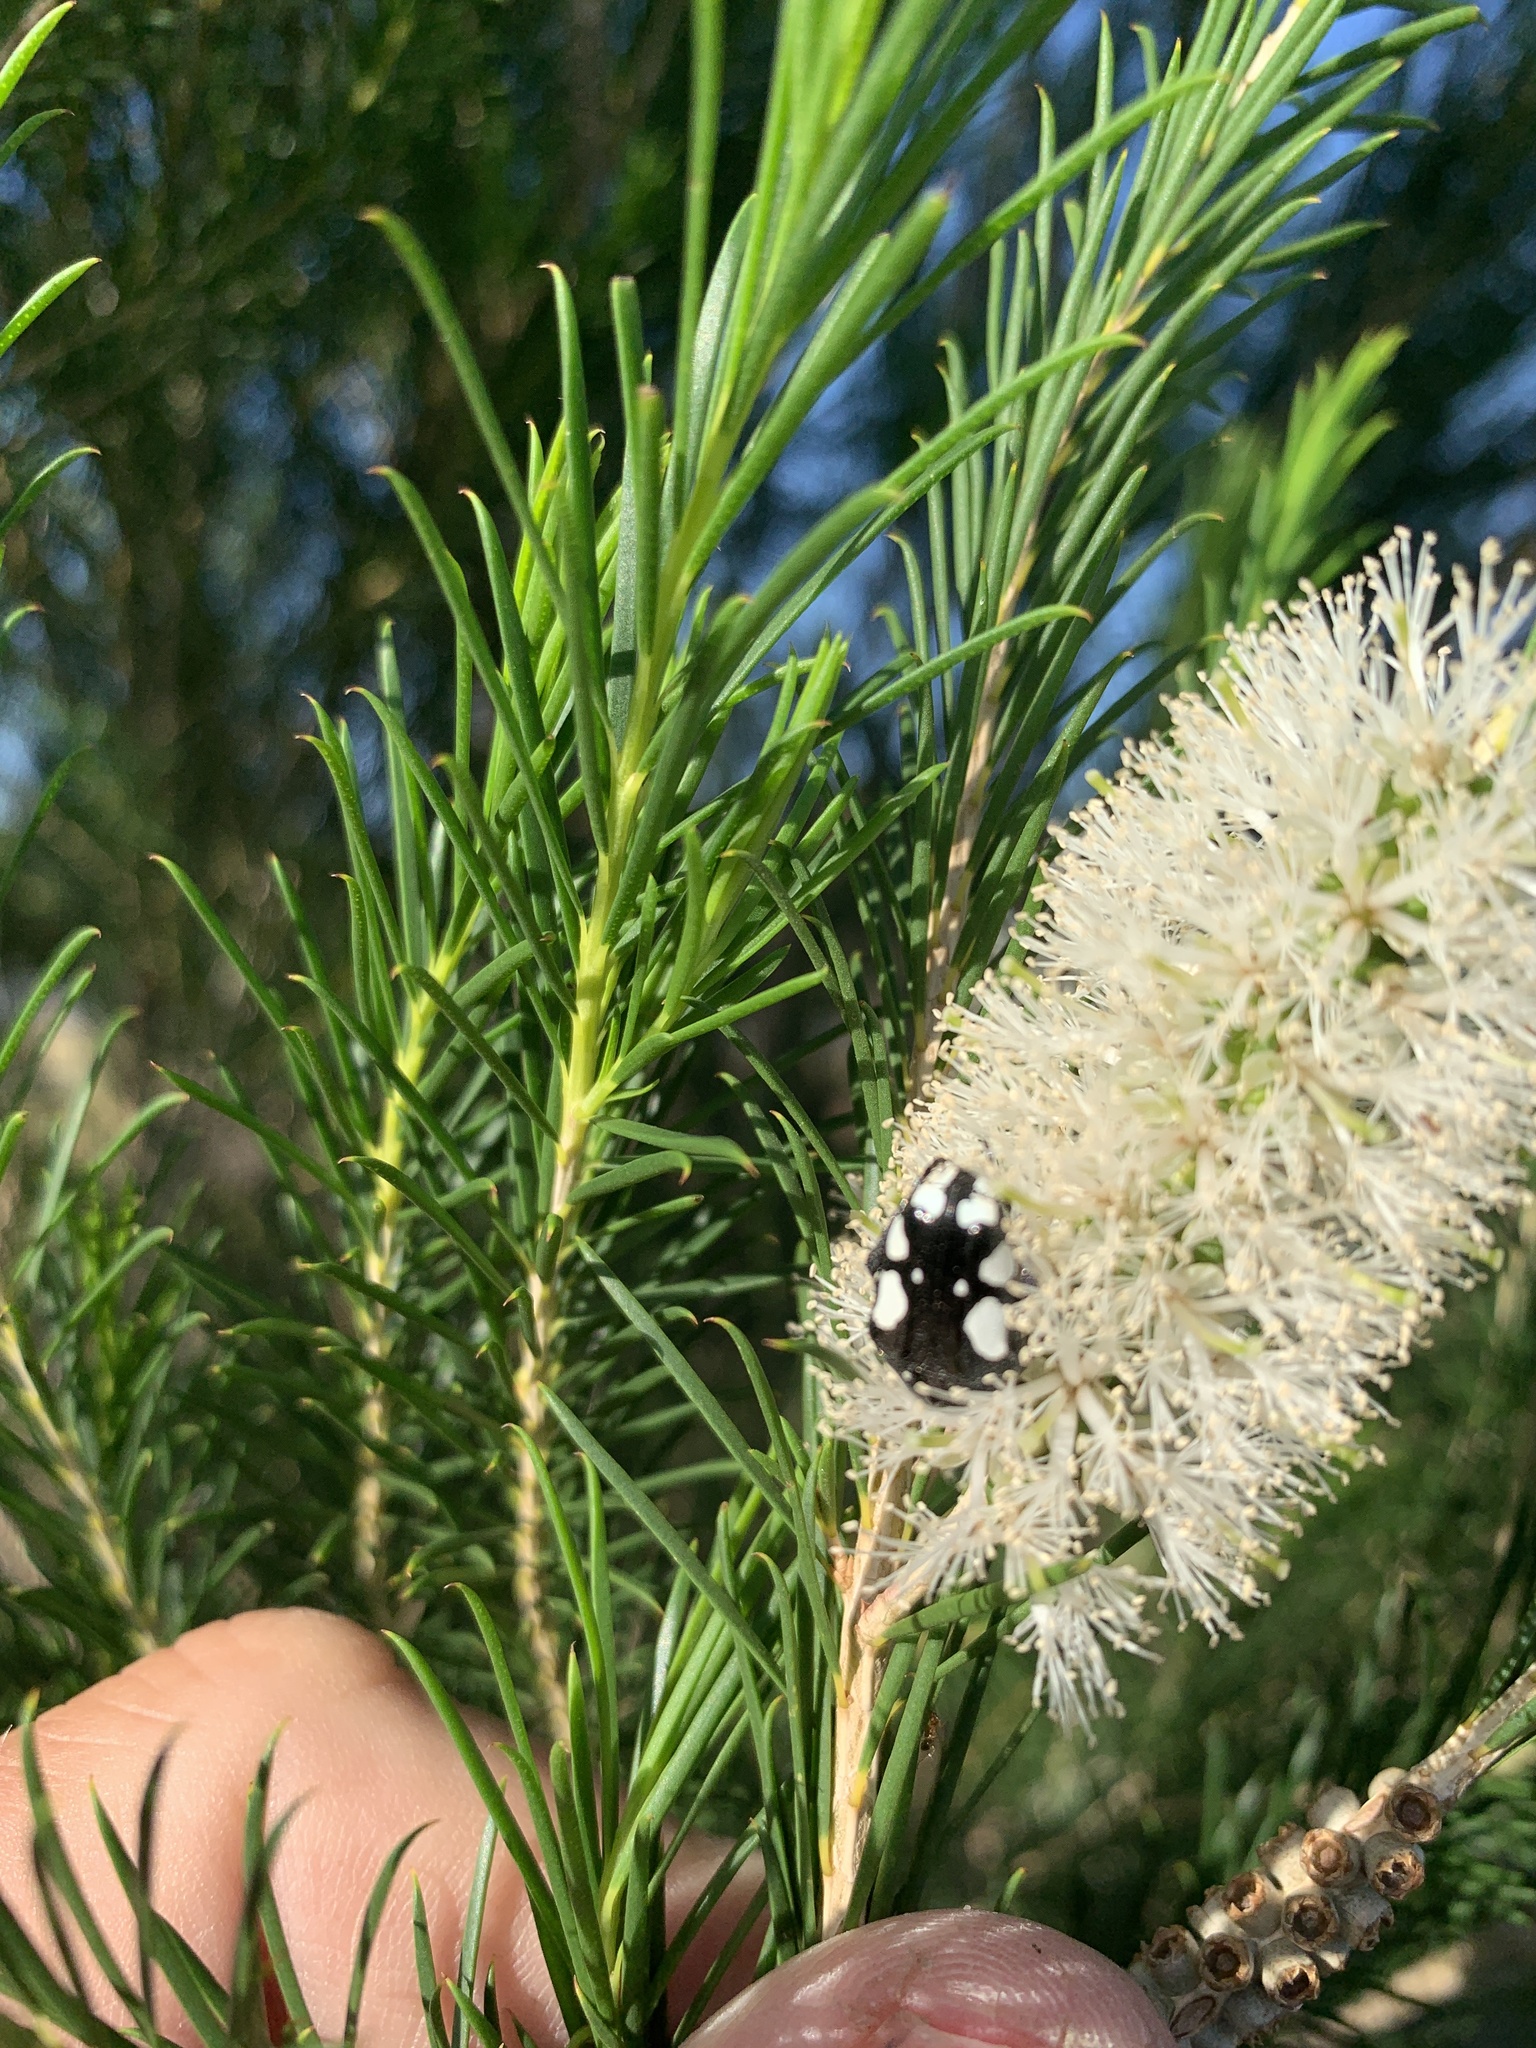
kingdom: Animalia
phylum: Arthropoda
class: Insecta
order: Coleoptera
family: Scarabaeidae
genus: Mausoleopsis
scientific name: Mausoleopsis amabilis
